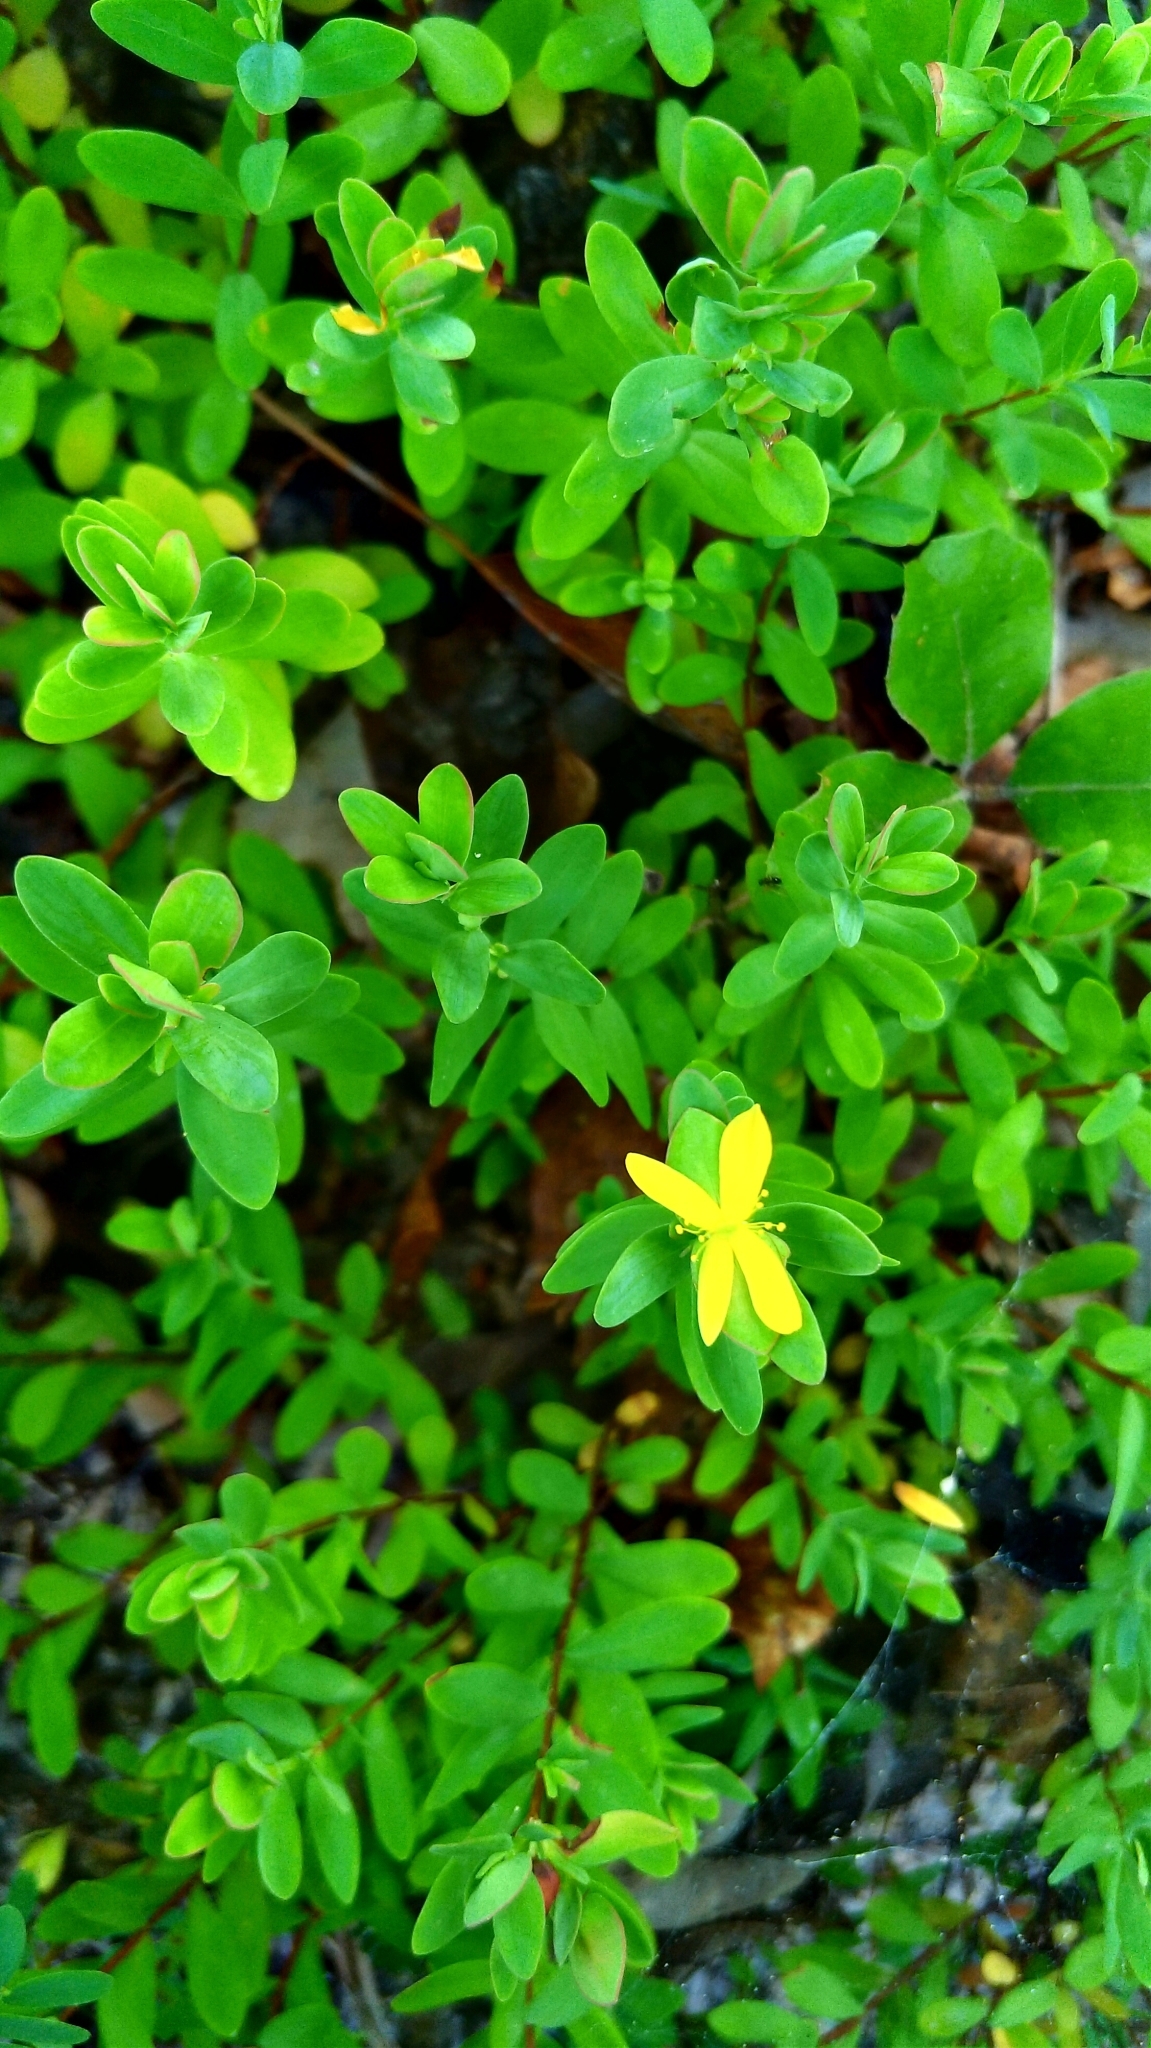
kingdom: Plantae
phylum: Tracheophyta
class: Magnoliopsida
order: Malpighiales
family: Hypericaceae
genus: Hypericum
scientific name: Hypericum hypericoides
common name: St. andrew's cross
